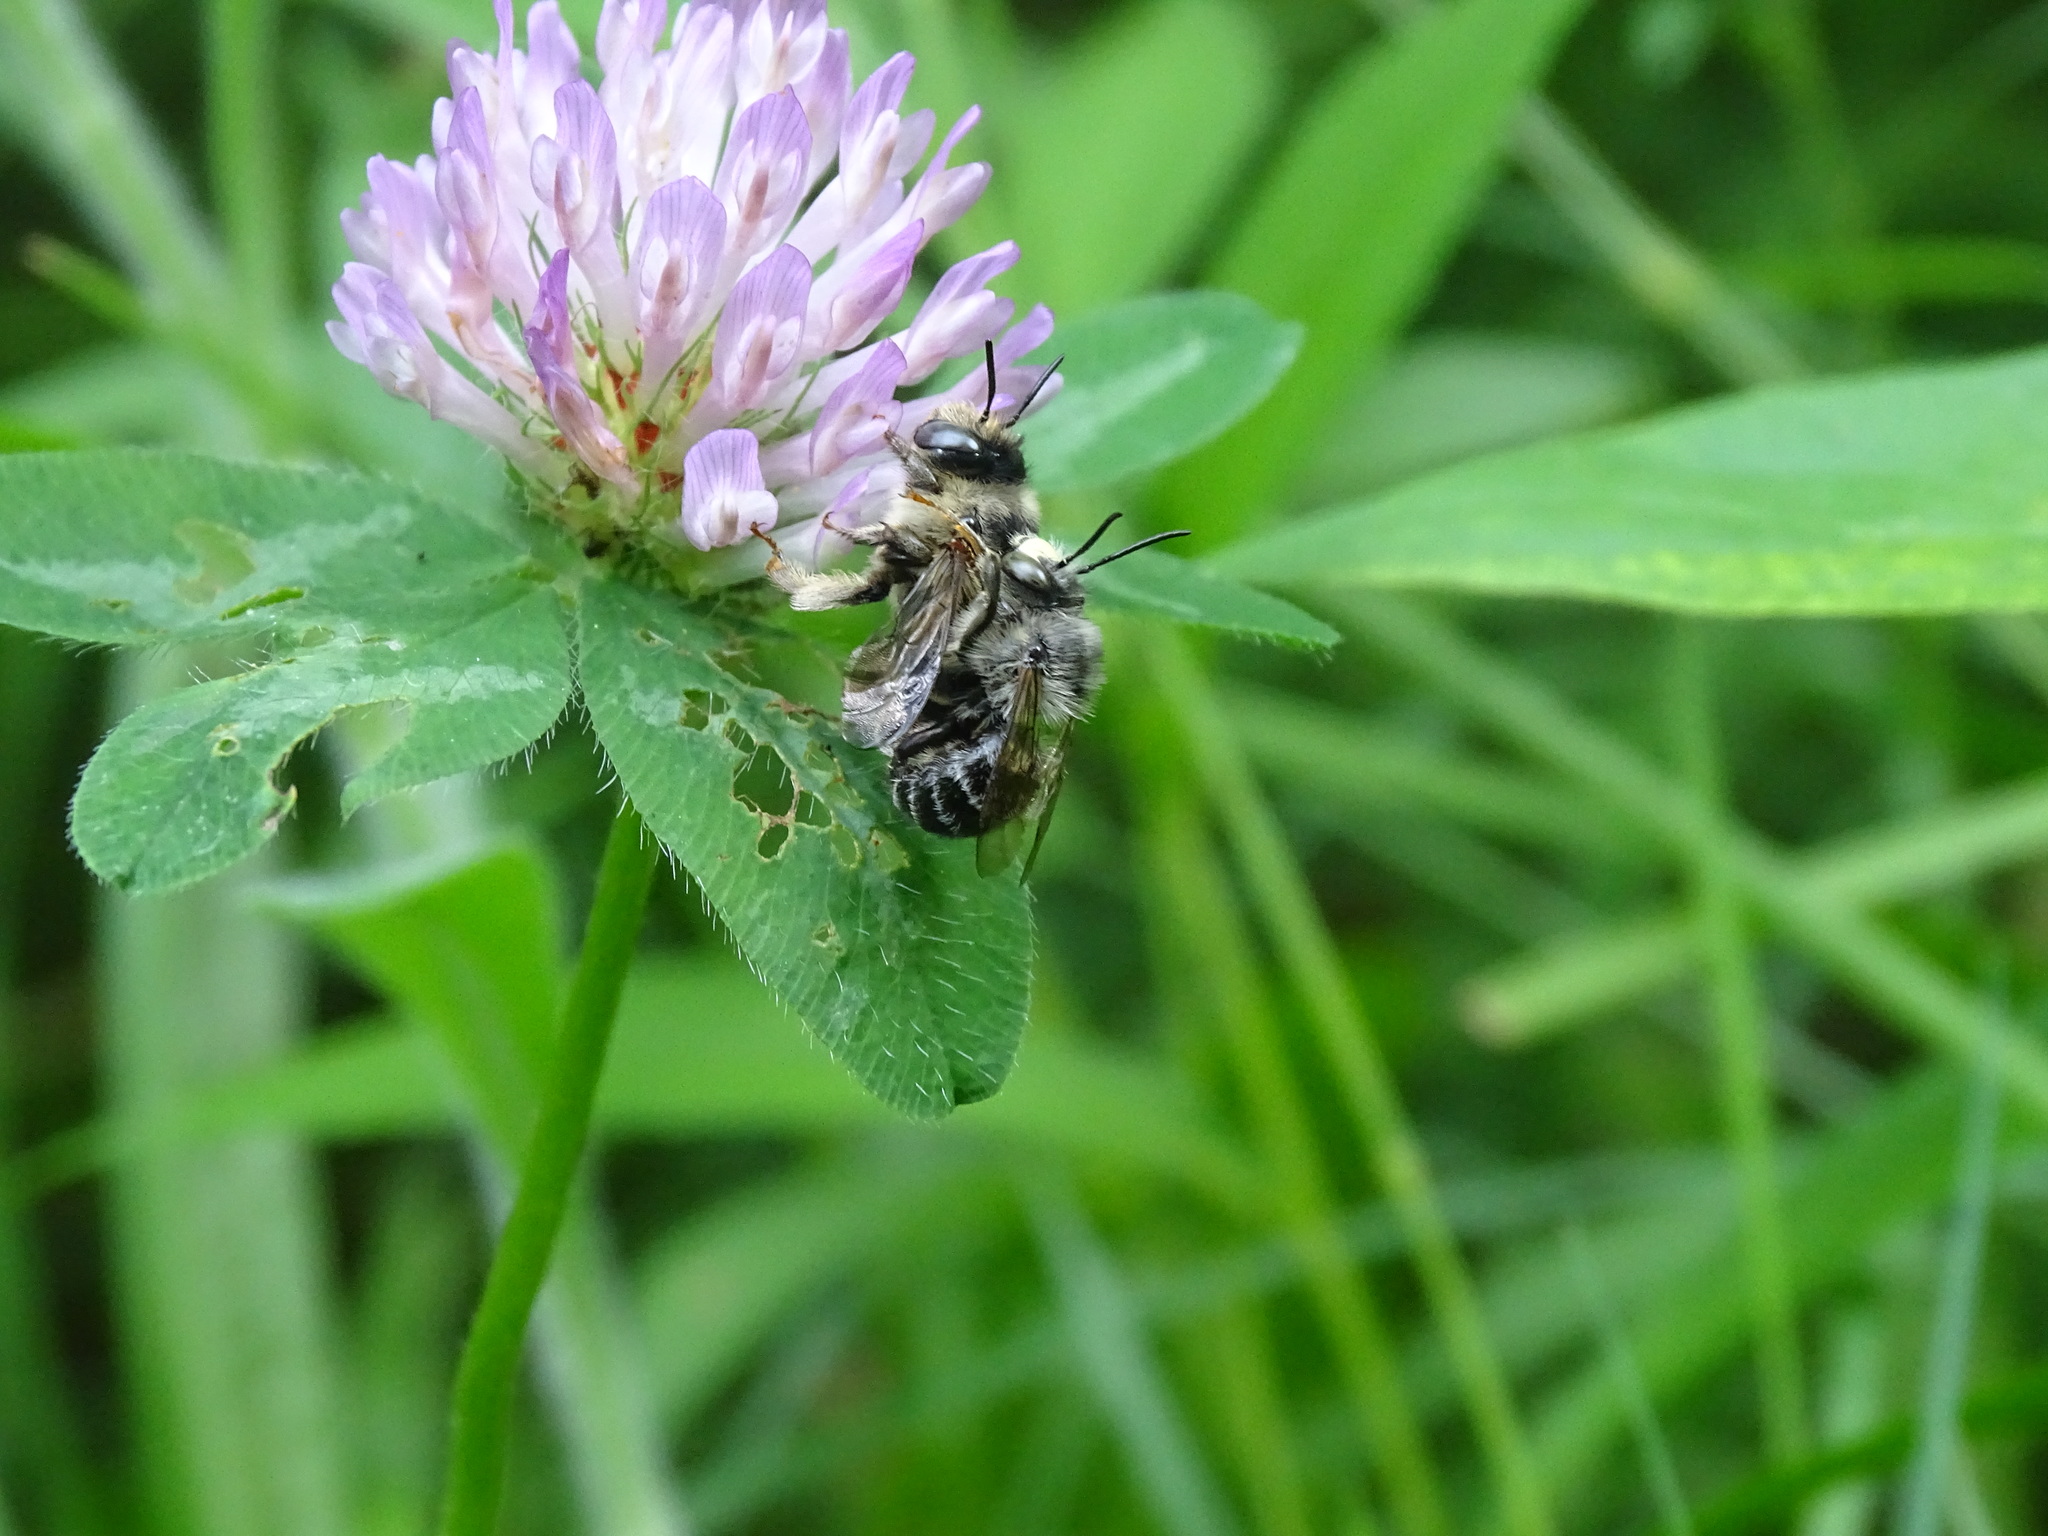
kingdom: Animalia
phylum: Arthropoda
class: Insecta
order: Hymenoptera
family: Apidae
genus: Anthophora
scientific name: Anthophora terminalis
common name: Orange-tipped wood-digger bee
